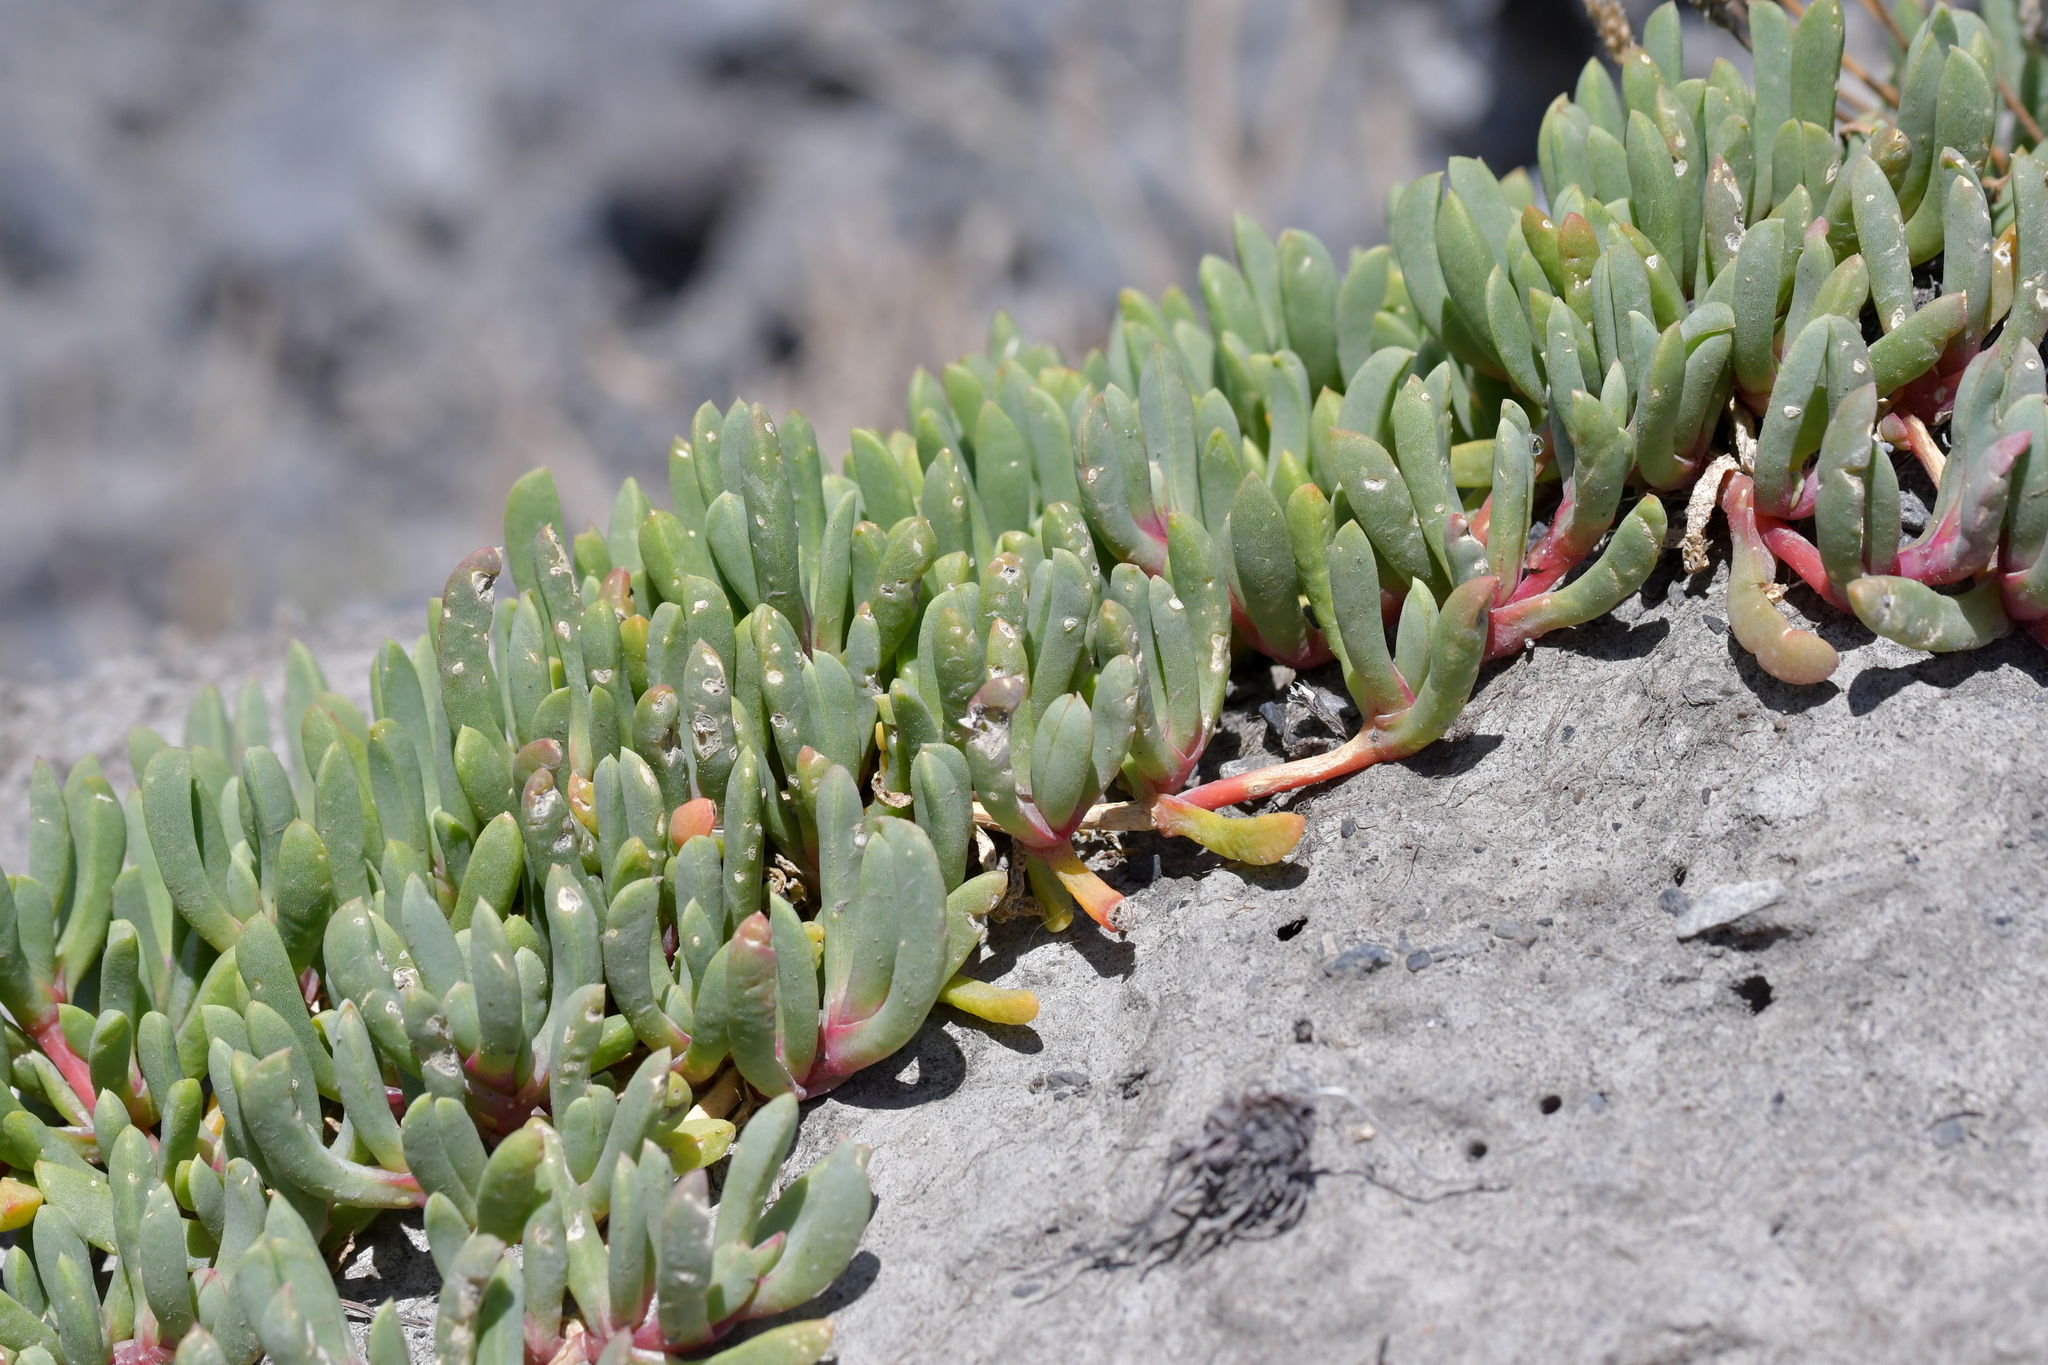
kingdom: Plantae
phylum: Tracheophyta
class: Magnoliopsida
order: Caryophyllales
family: Aizoaceae
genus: Disphyma
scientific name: Disphyma australe
